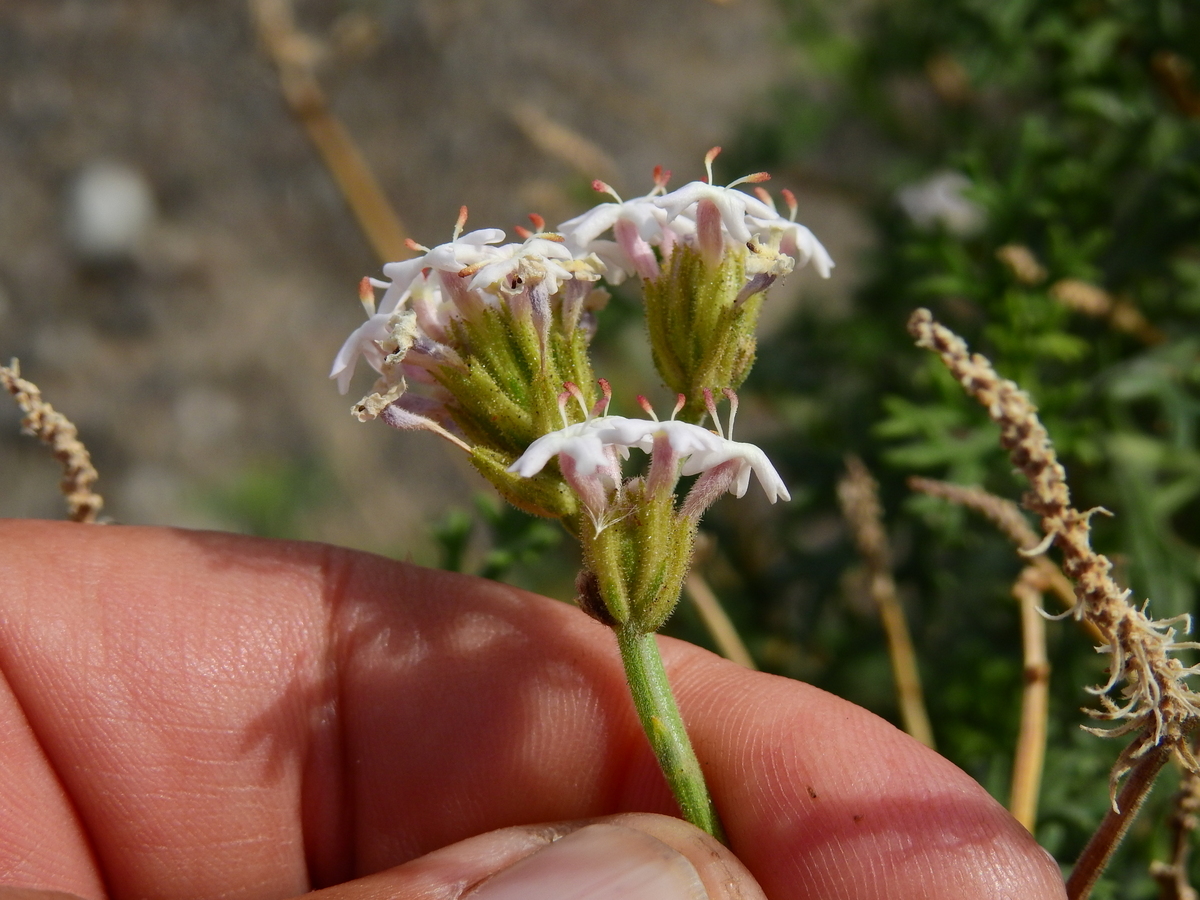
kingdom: Plantae
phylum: Tracheophyta
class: Magnoliopsida
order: Lamiales
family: Verbenaceae
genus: Junellia
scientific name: Junellia crithmifolia
